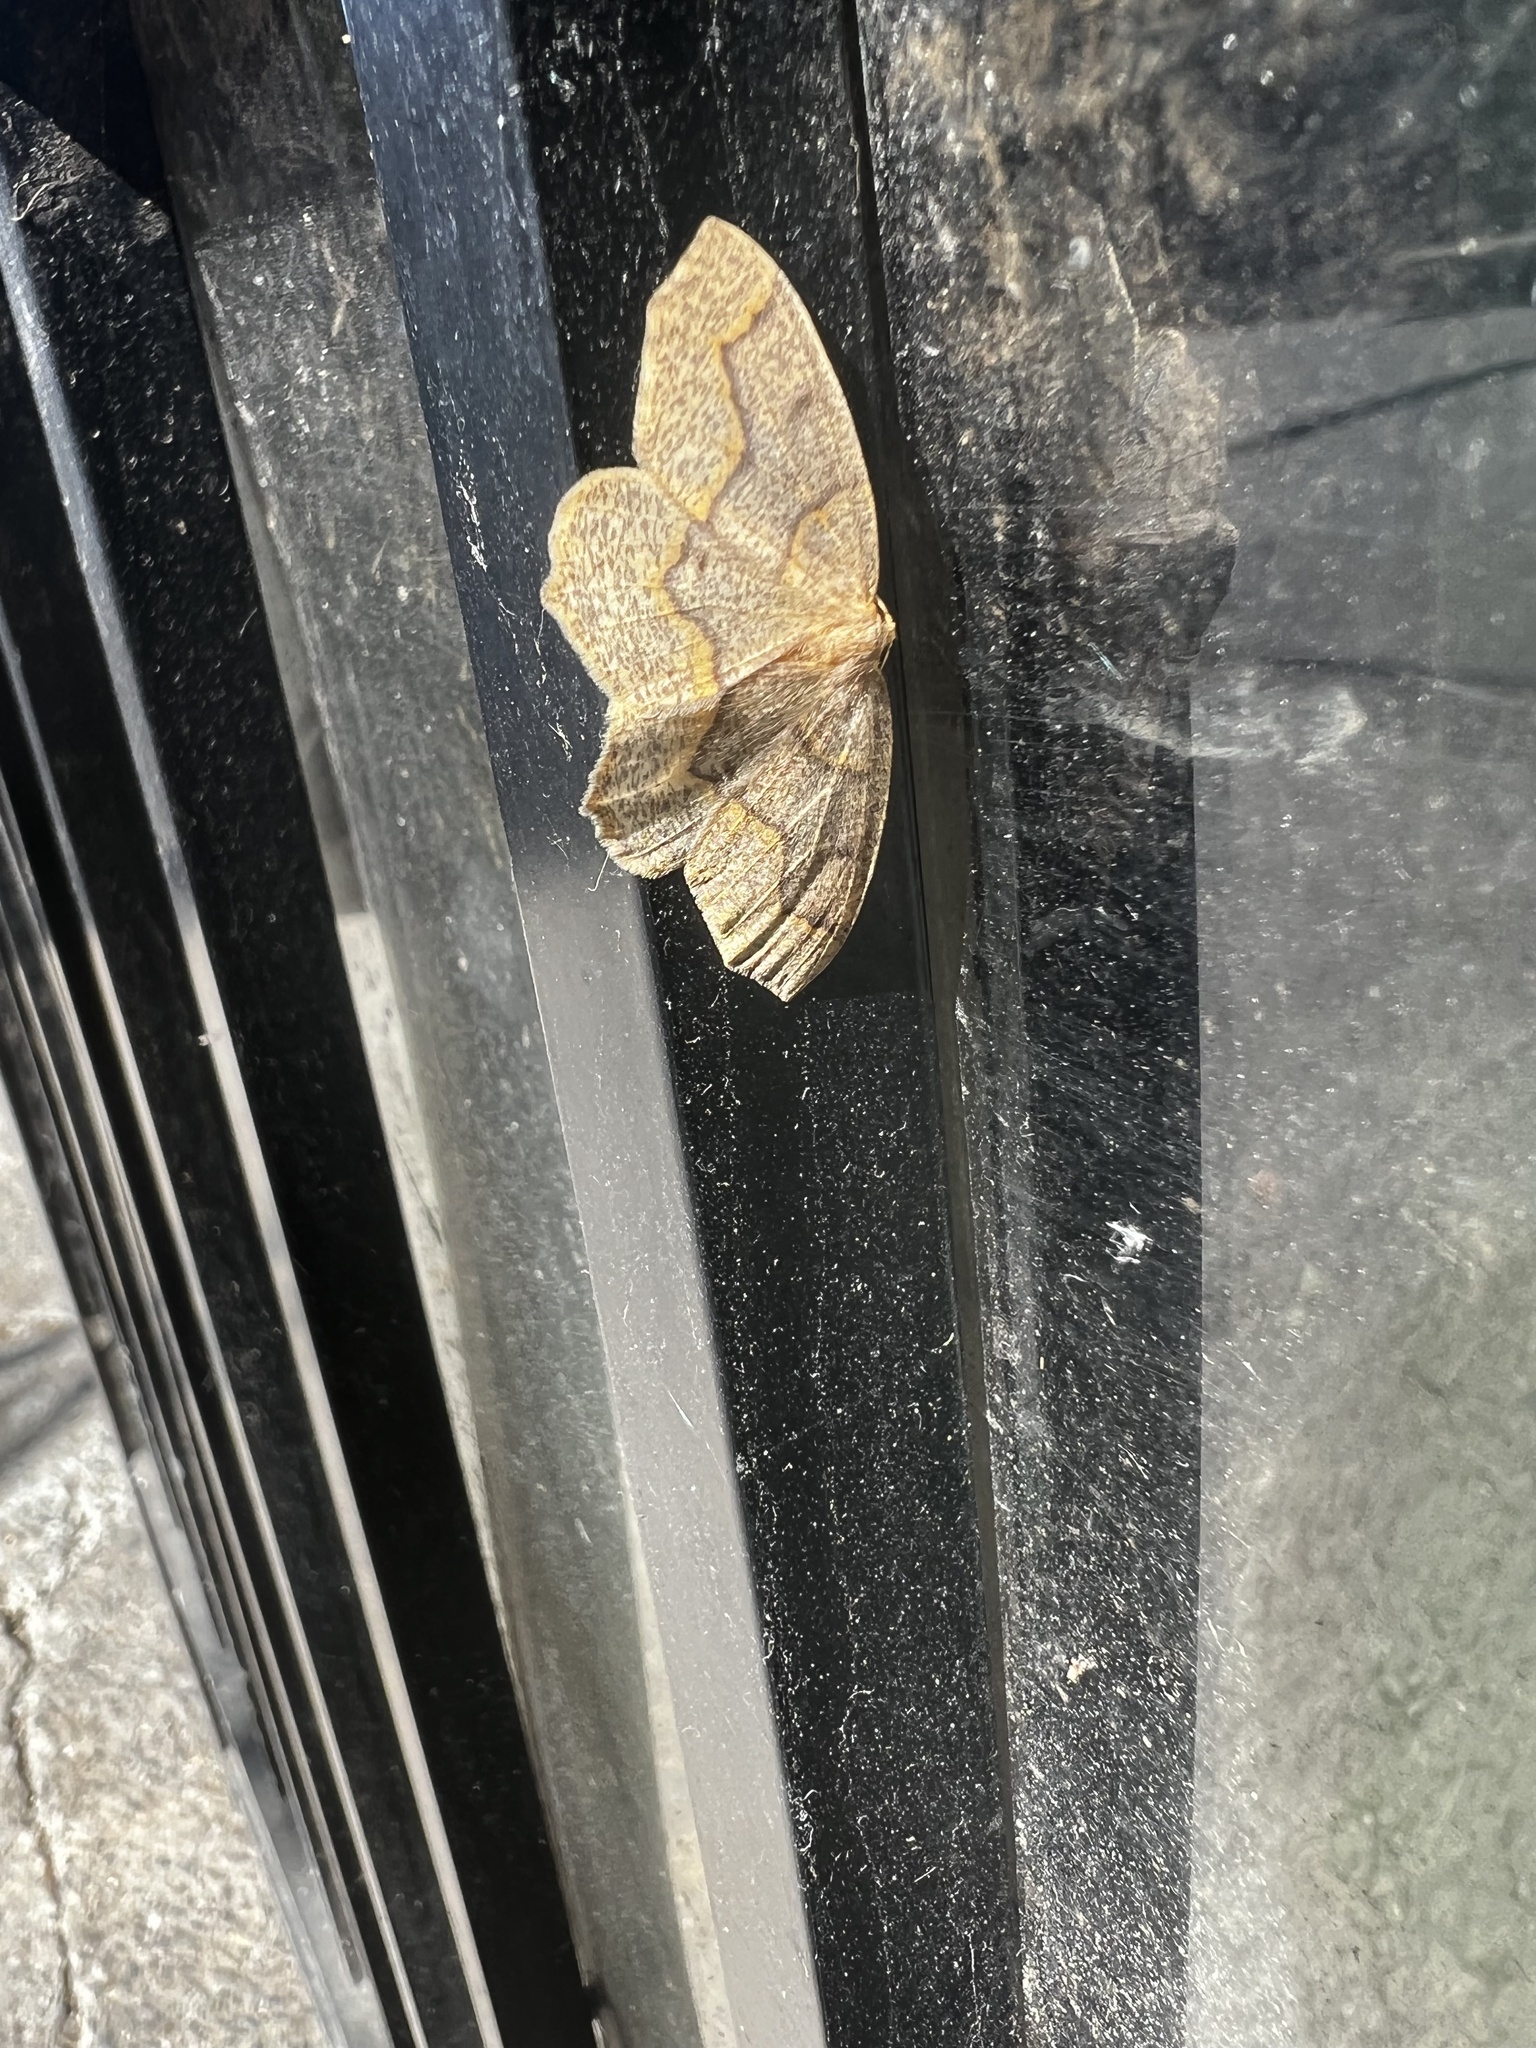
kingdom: Animalia
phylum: Arthropoda
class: Insecta
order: Lepidoptera
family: Geometridae
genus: Lambdina
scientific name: Lambdina fiscellaria
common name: Hemlock looper
